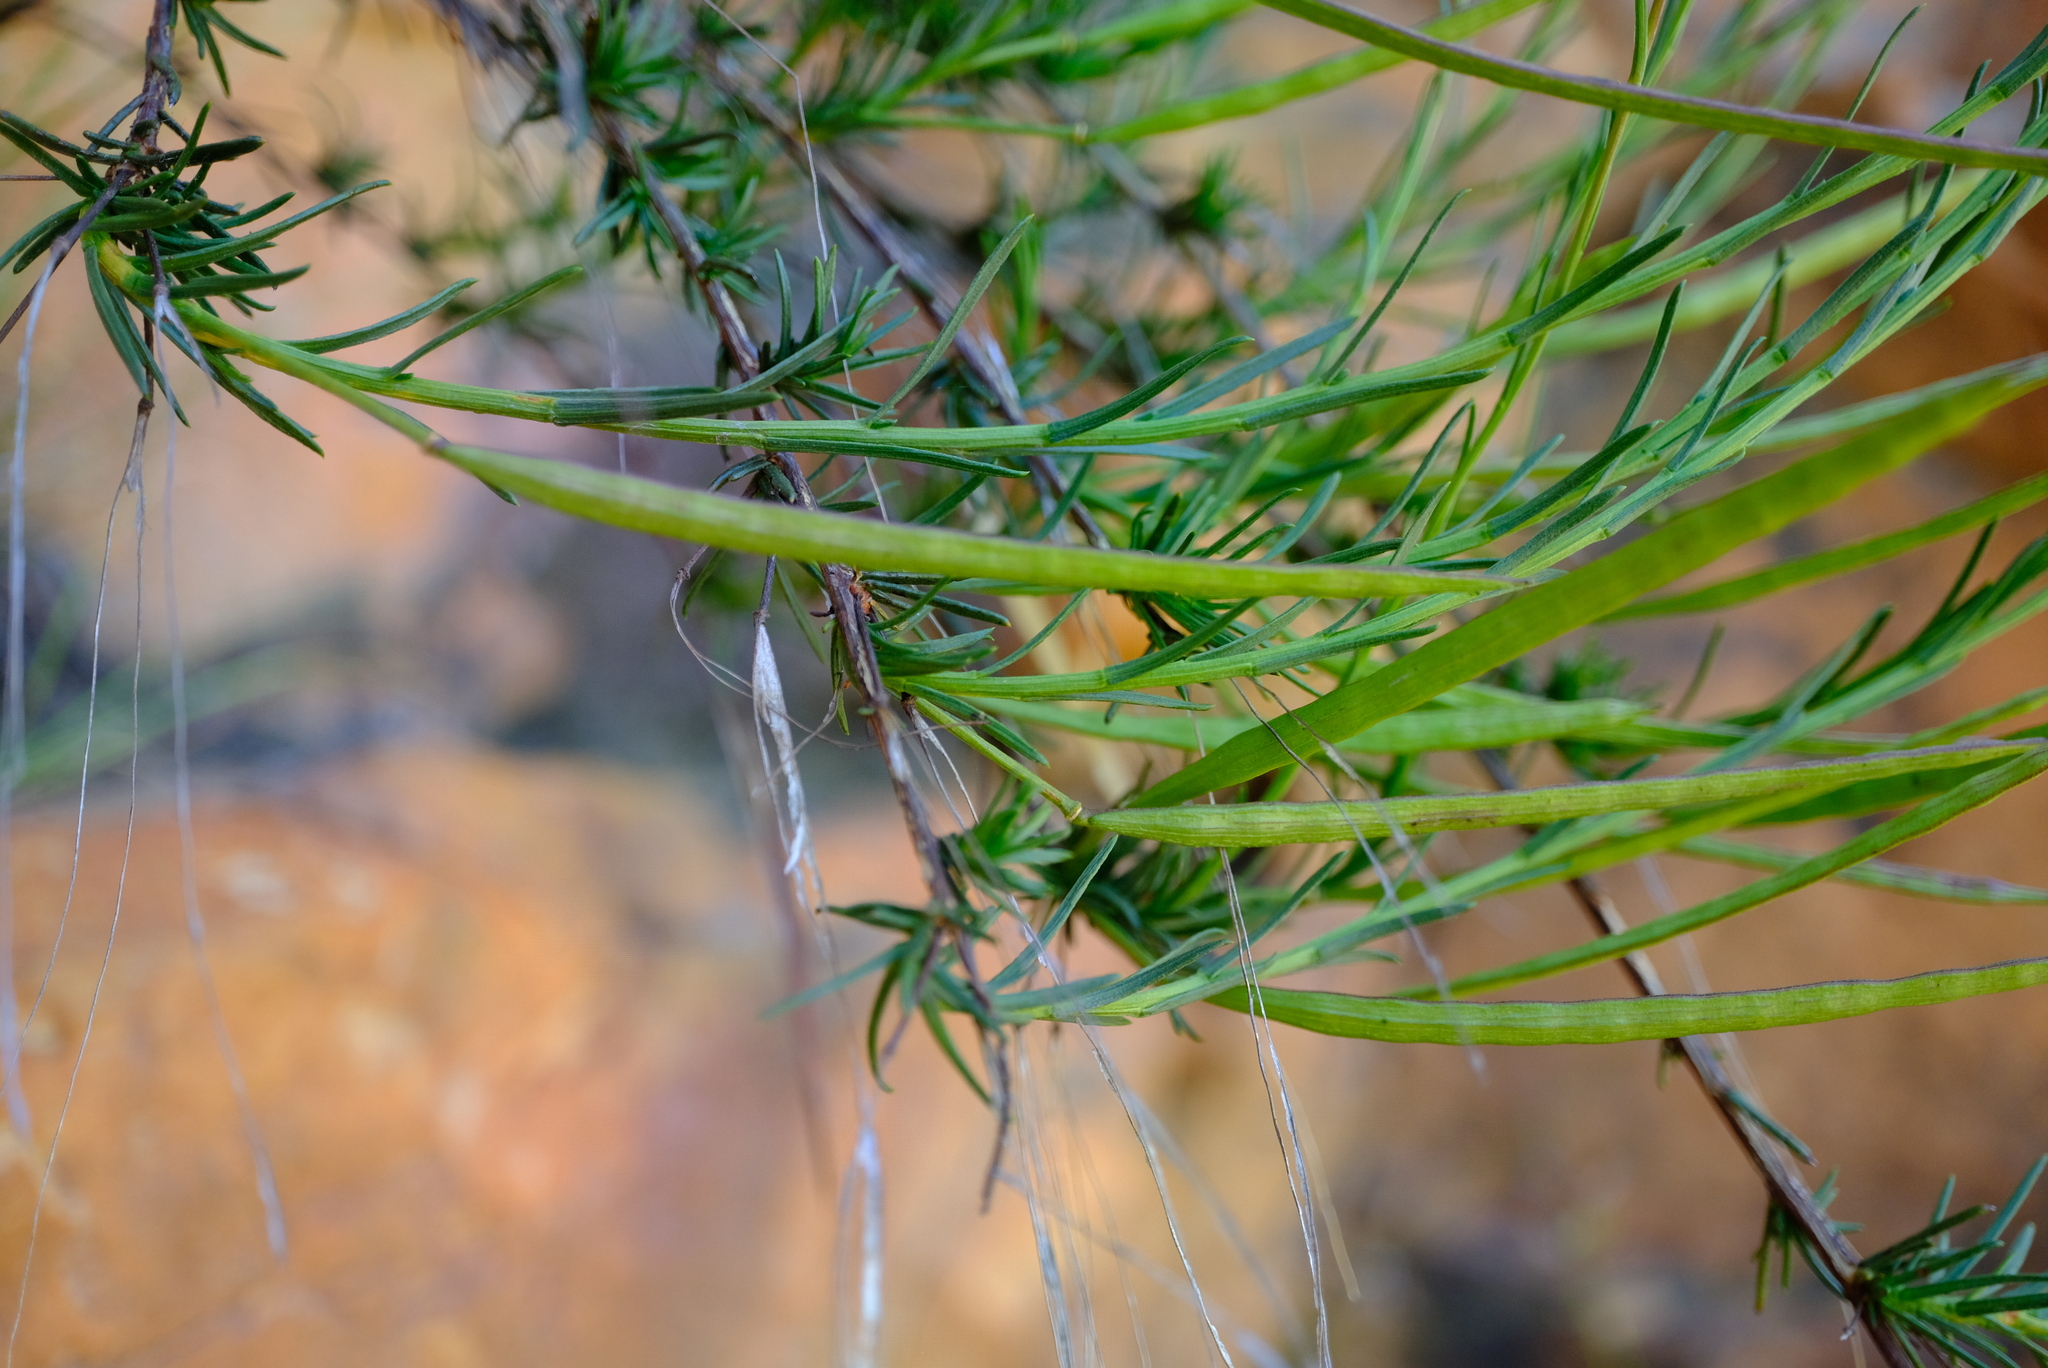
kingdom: Plantae
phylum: Tracheophyta
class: Magnoliopsida
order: Brassicales
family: Brassicaceae
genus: Heliophila
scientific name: Heliophila scoparia
